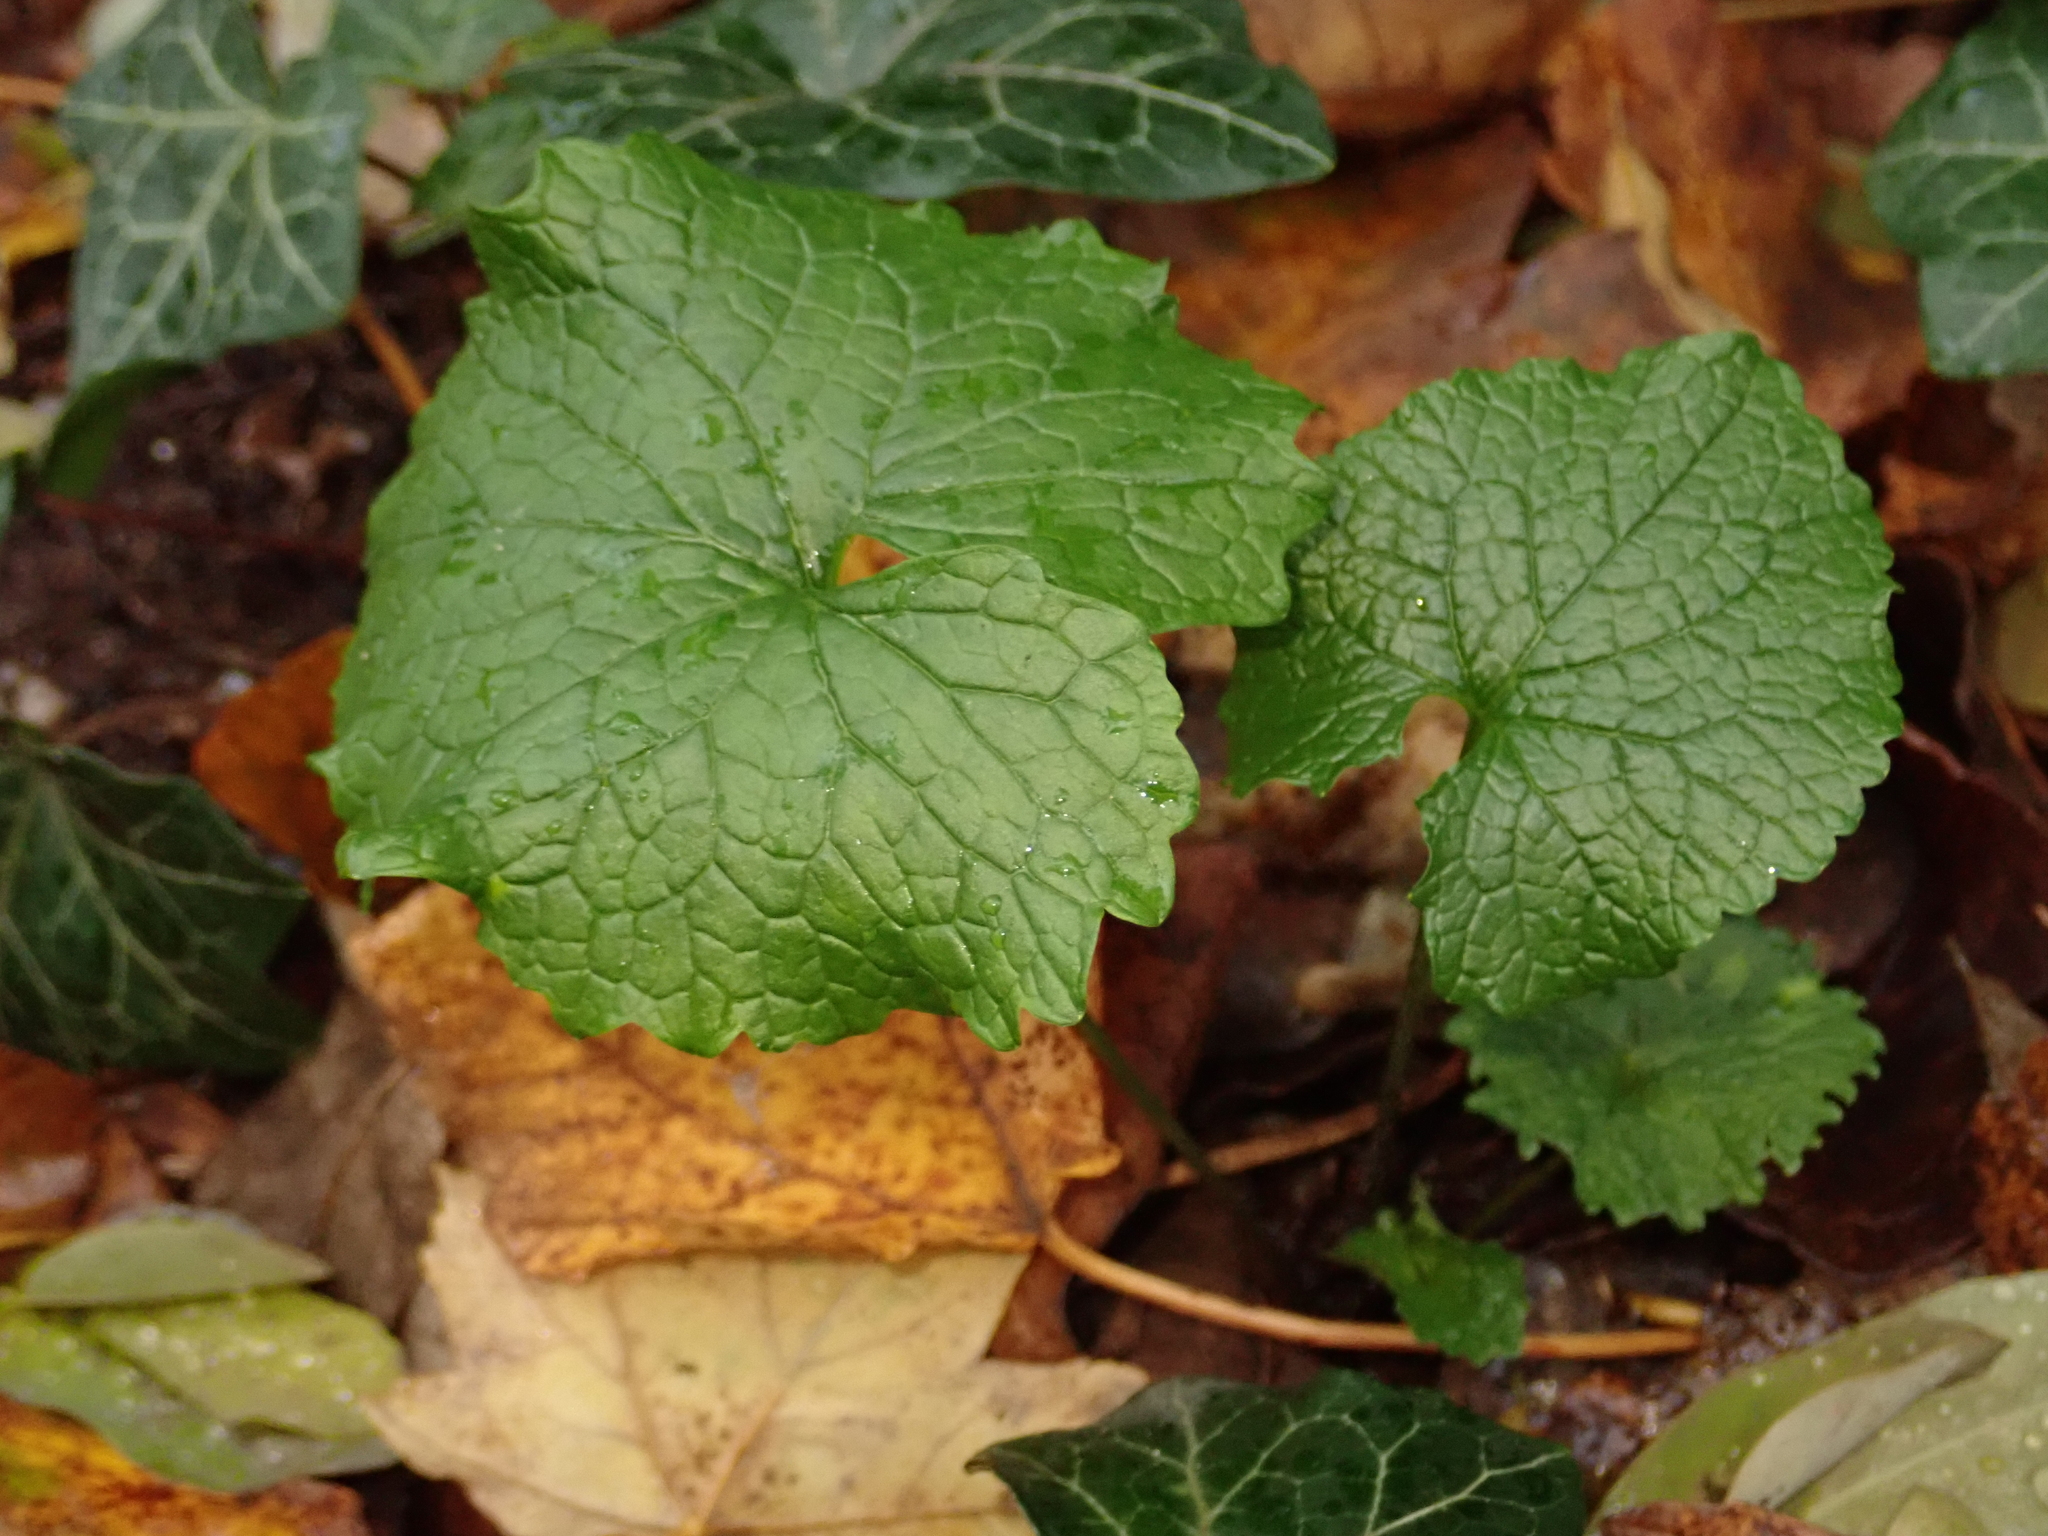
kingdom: Plantae
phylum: Tracheophyta
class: Magnoliopsida
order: Brassicales
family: Brassicaceae
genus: Alliaria
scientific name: Alliaria petiolata
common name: Garlic mustard
